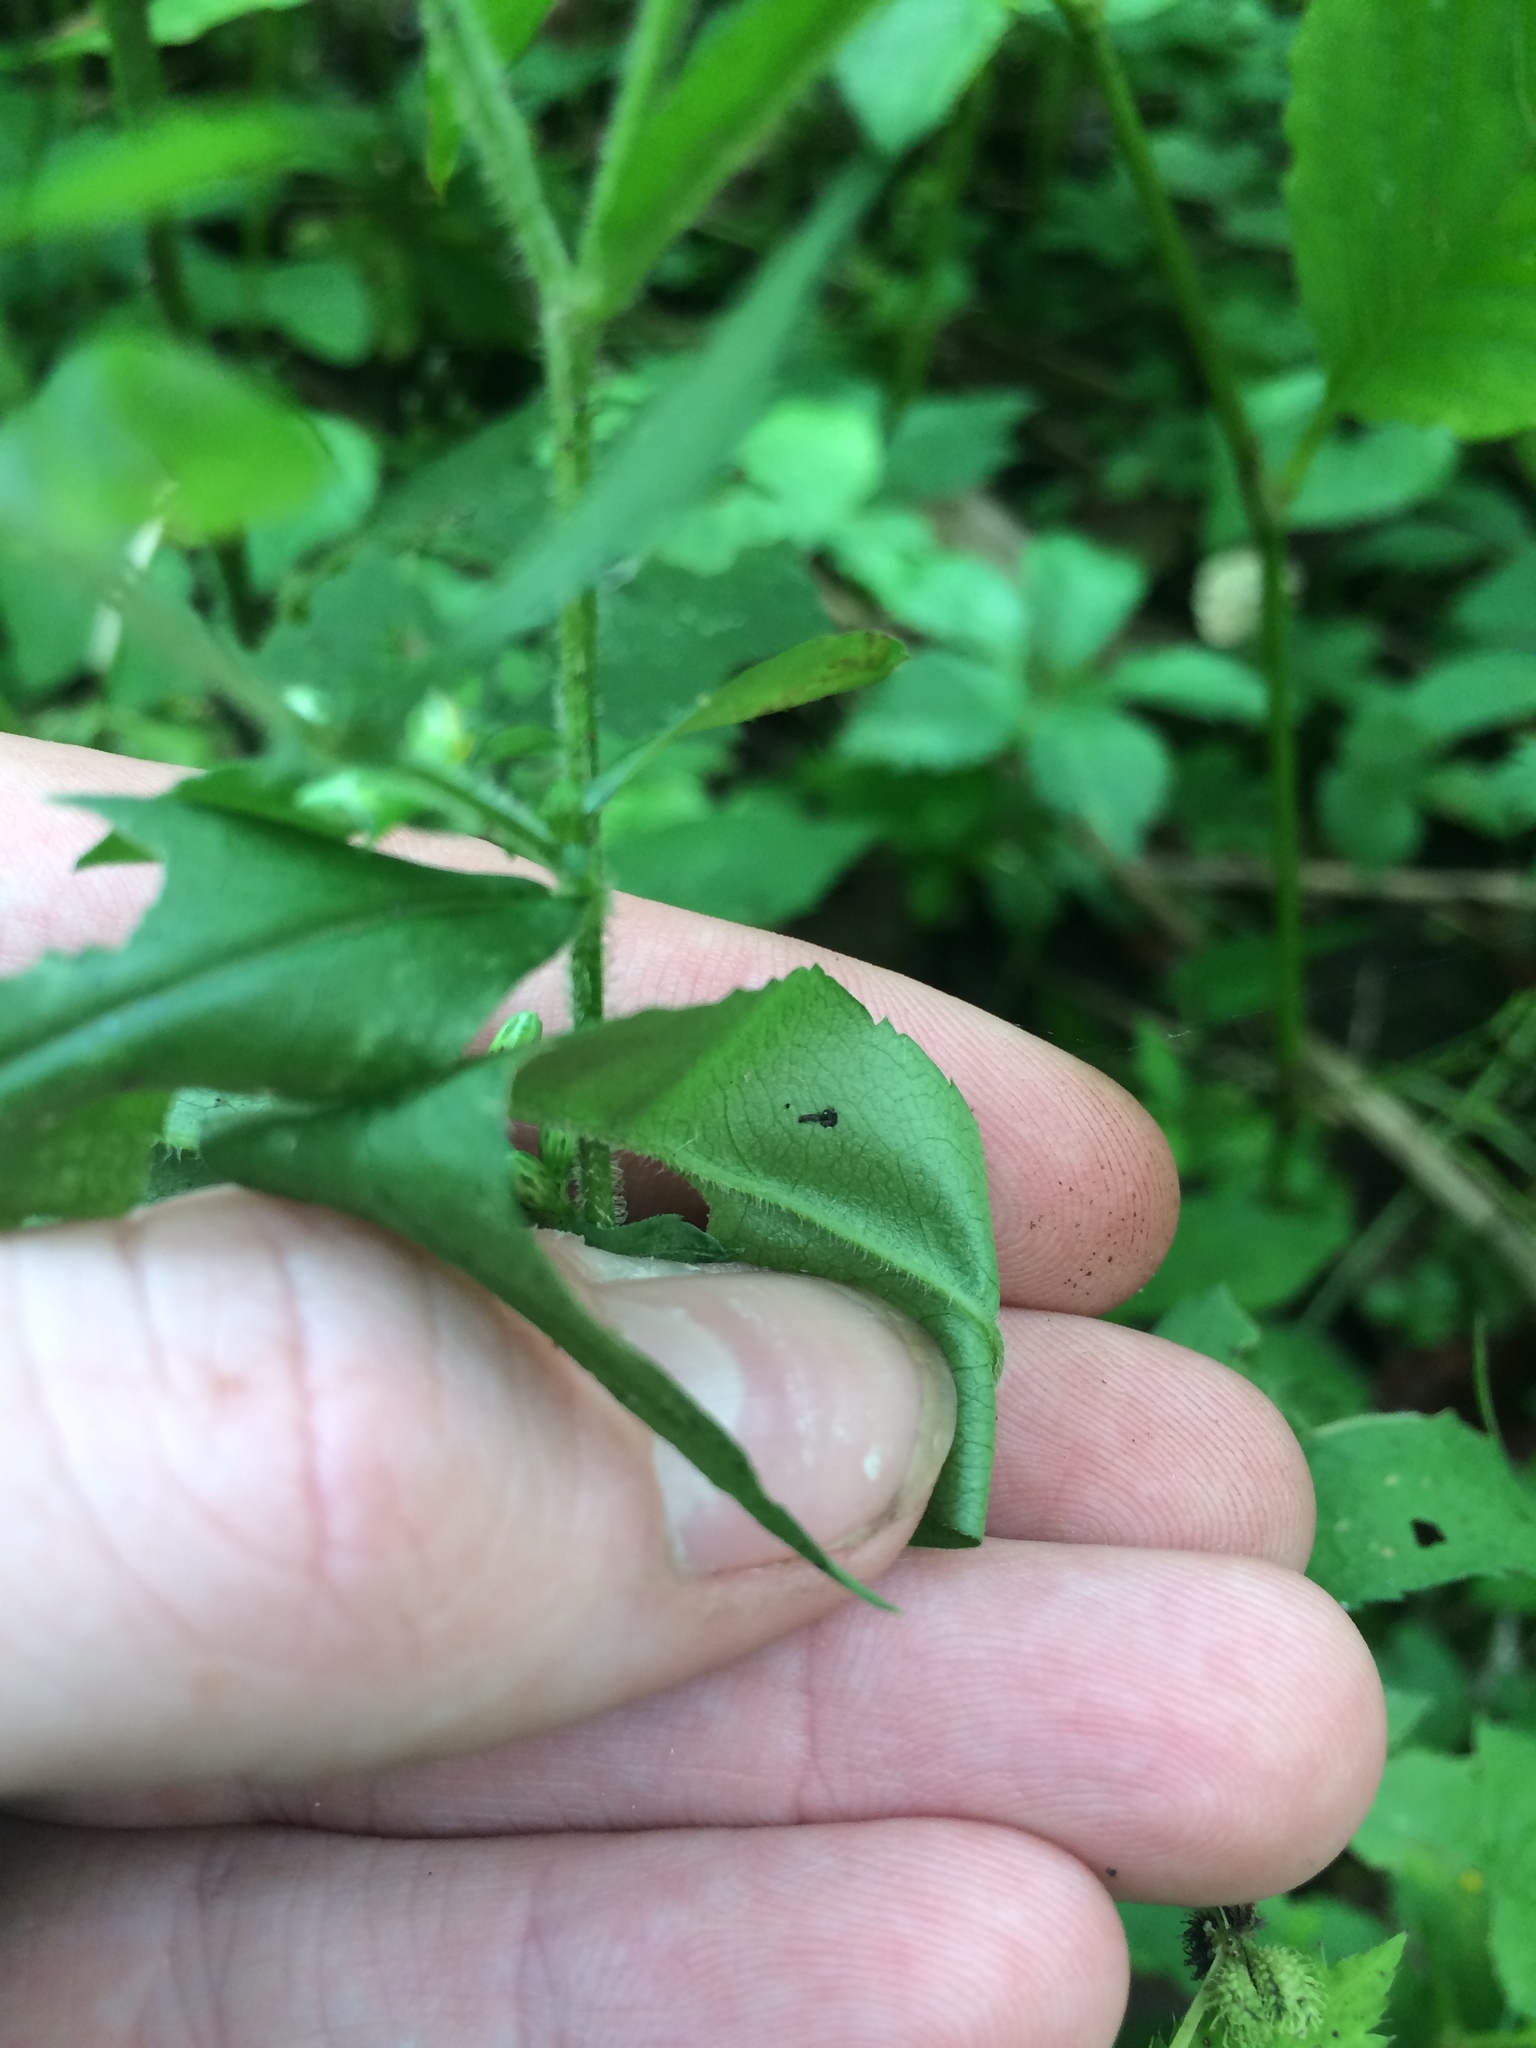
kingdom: Plantae
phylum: Tracheophyta
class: Magnoliopsida
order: Asterales
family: Asteraceae
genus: Symphyotrichum
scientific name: Symphyotrichum lateriflorum
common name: Calico aster
